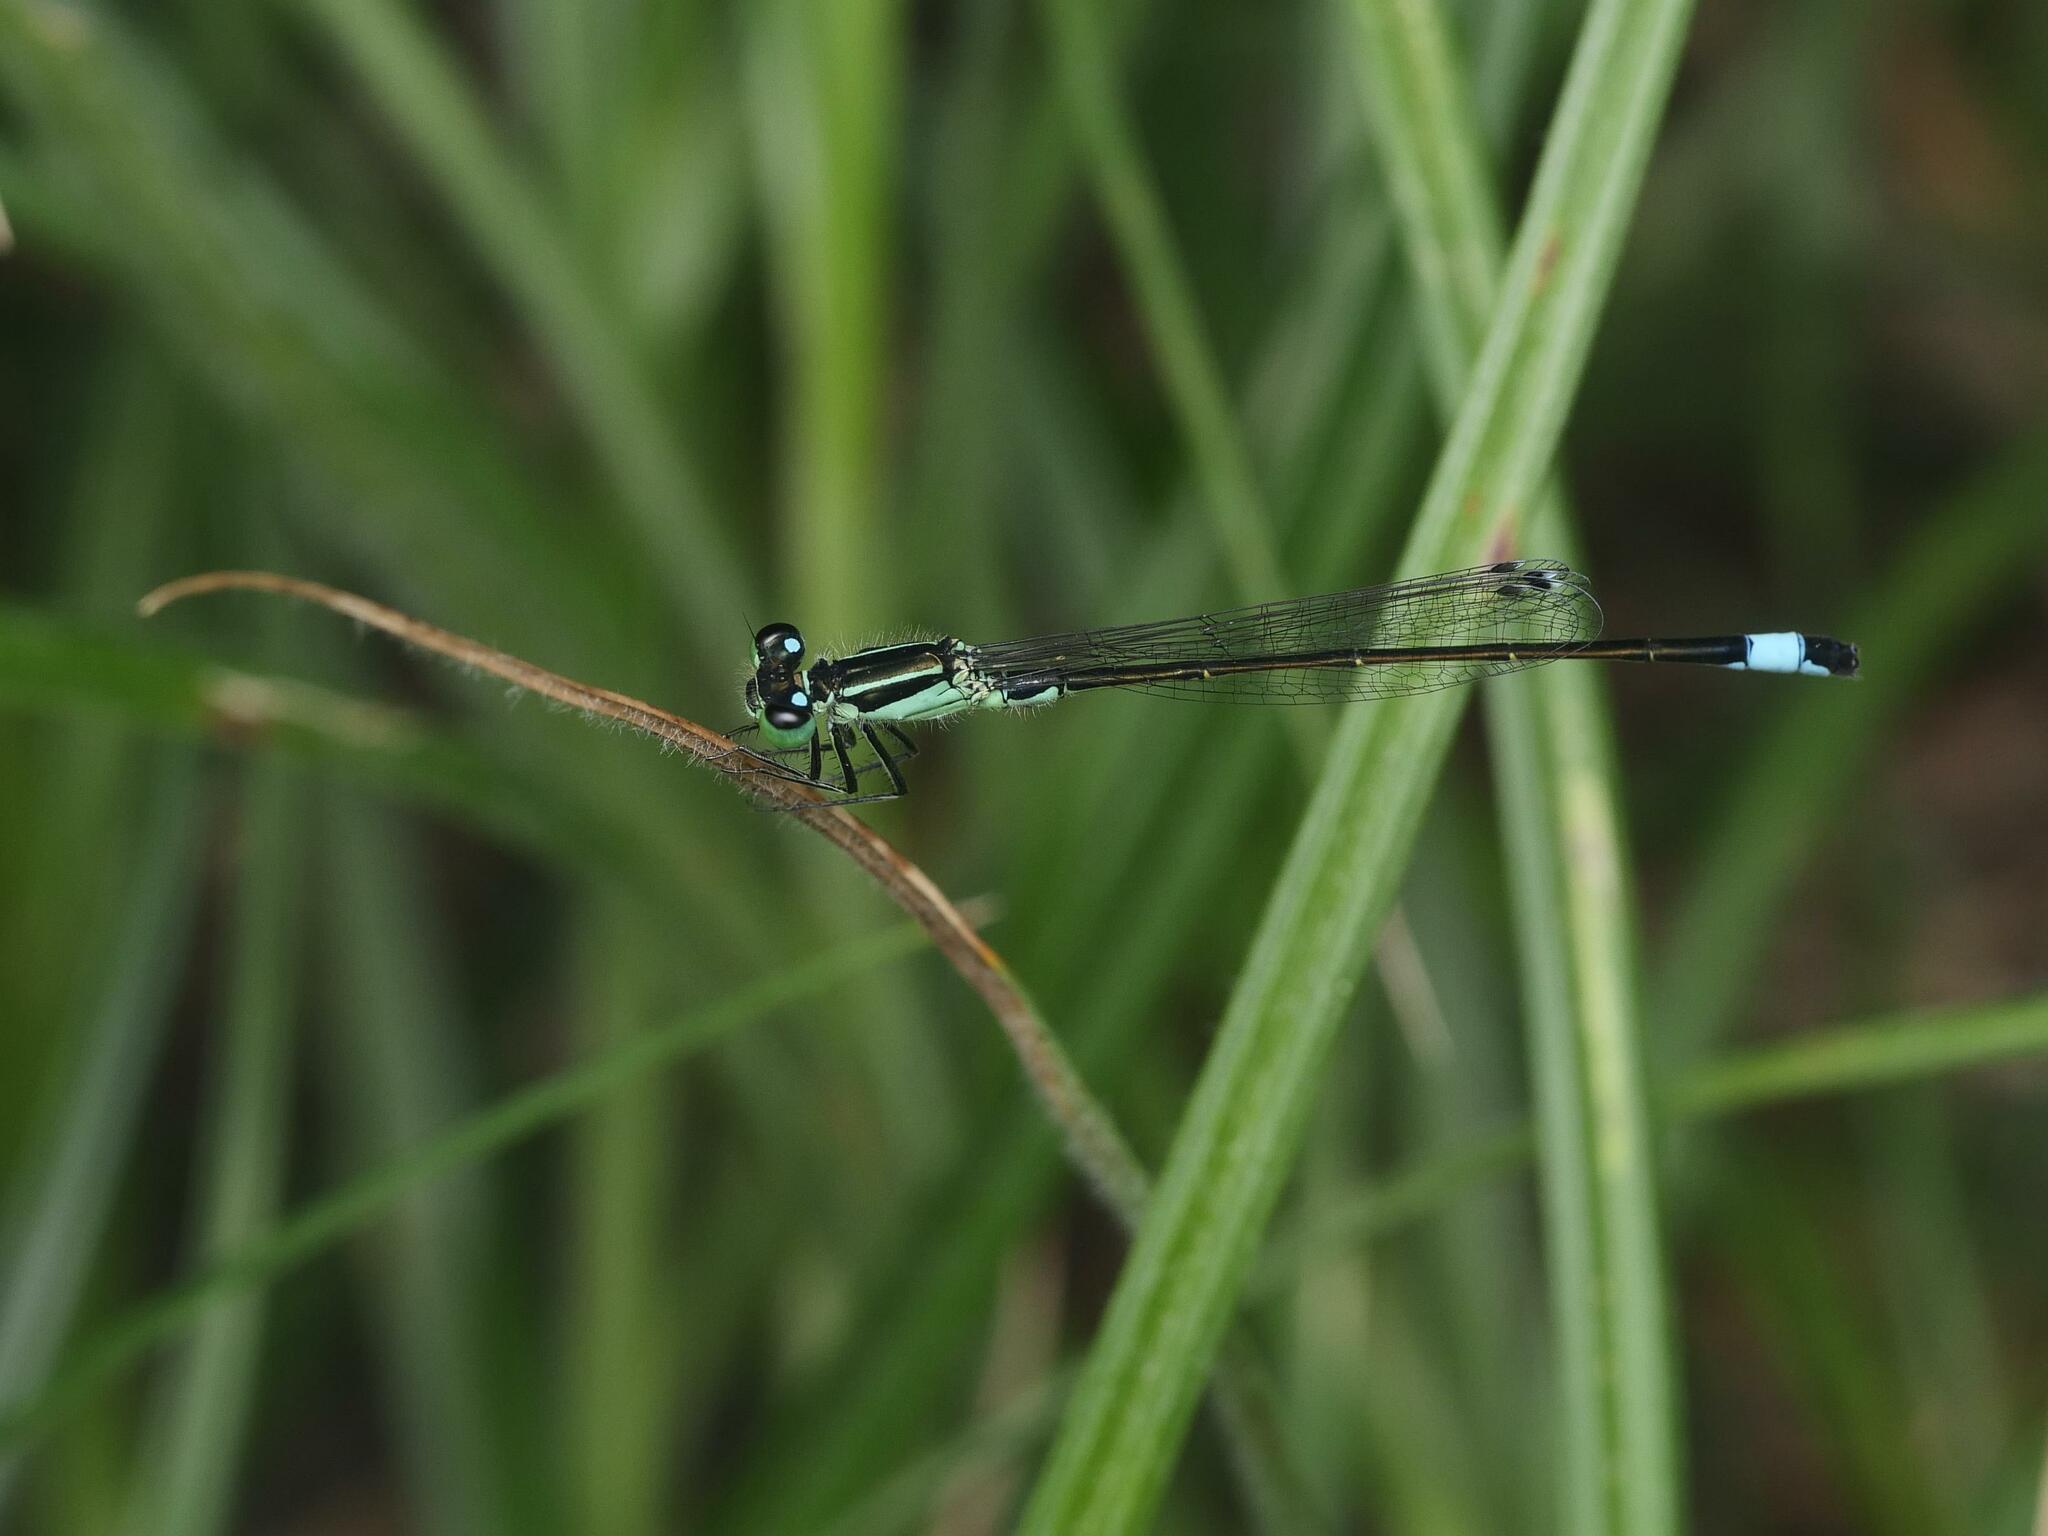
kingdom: Animalia
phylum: Arthropoda
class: Insecta
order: Odonata
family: Coenagrionidae
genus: Ischnura
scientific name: Ischnura elegans
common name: Blue-tailed damselfly
